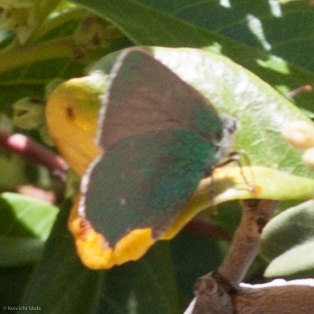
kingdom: Animalia
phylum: Arthropoda
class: Insecta
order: Lepidoptera
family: Lycaenidae
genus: Callophrys
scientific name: Callophrys dumetorum
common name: Bramble hairstreak
